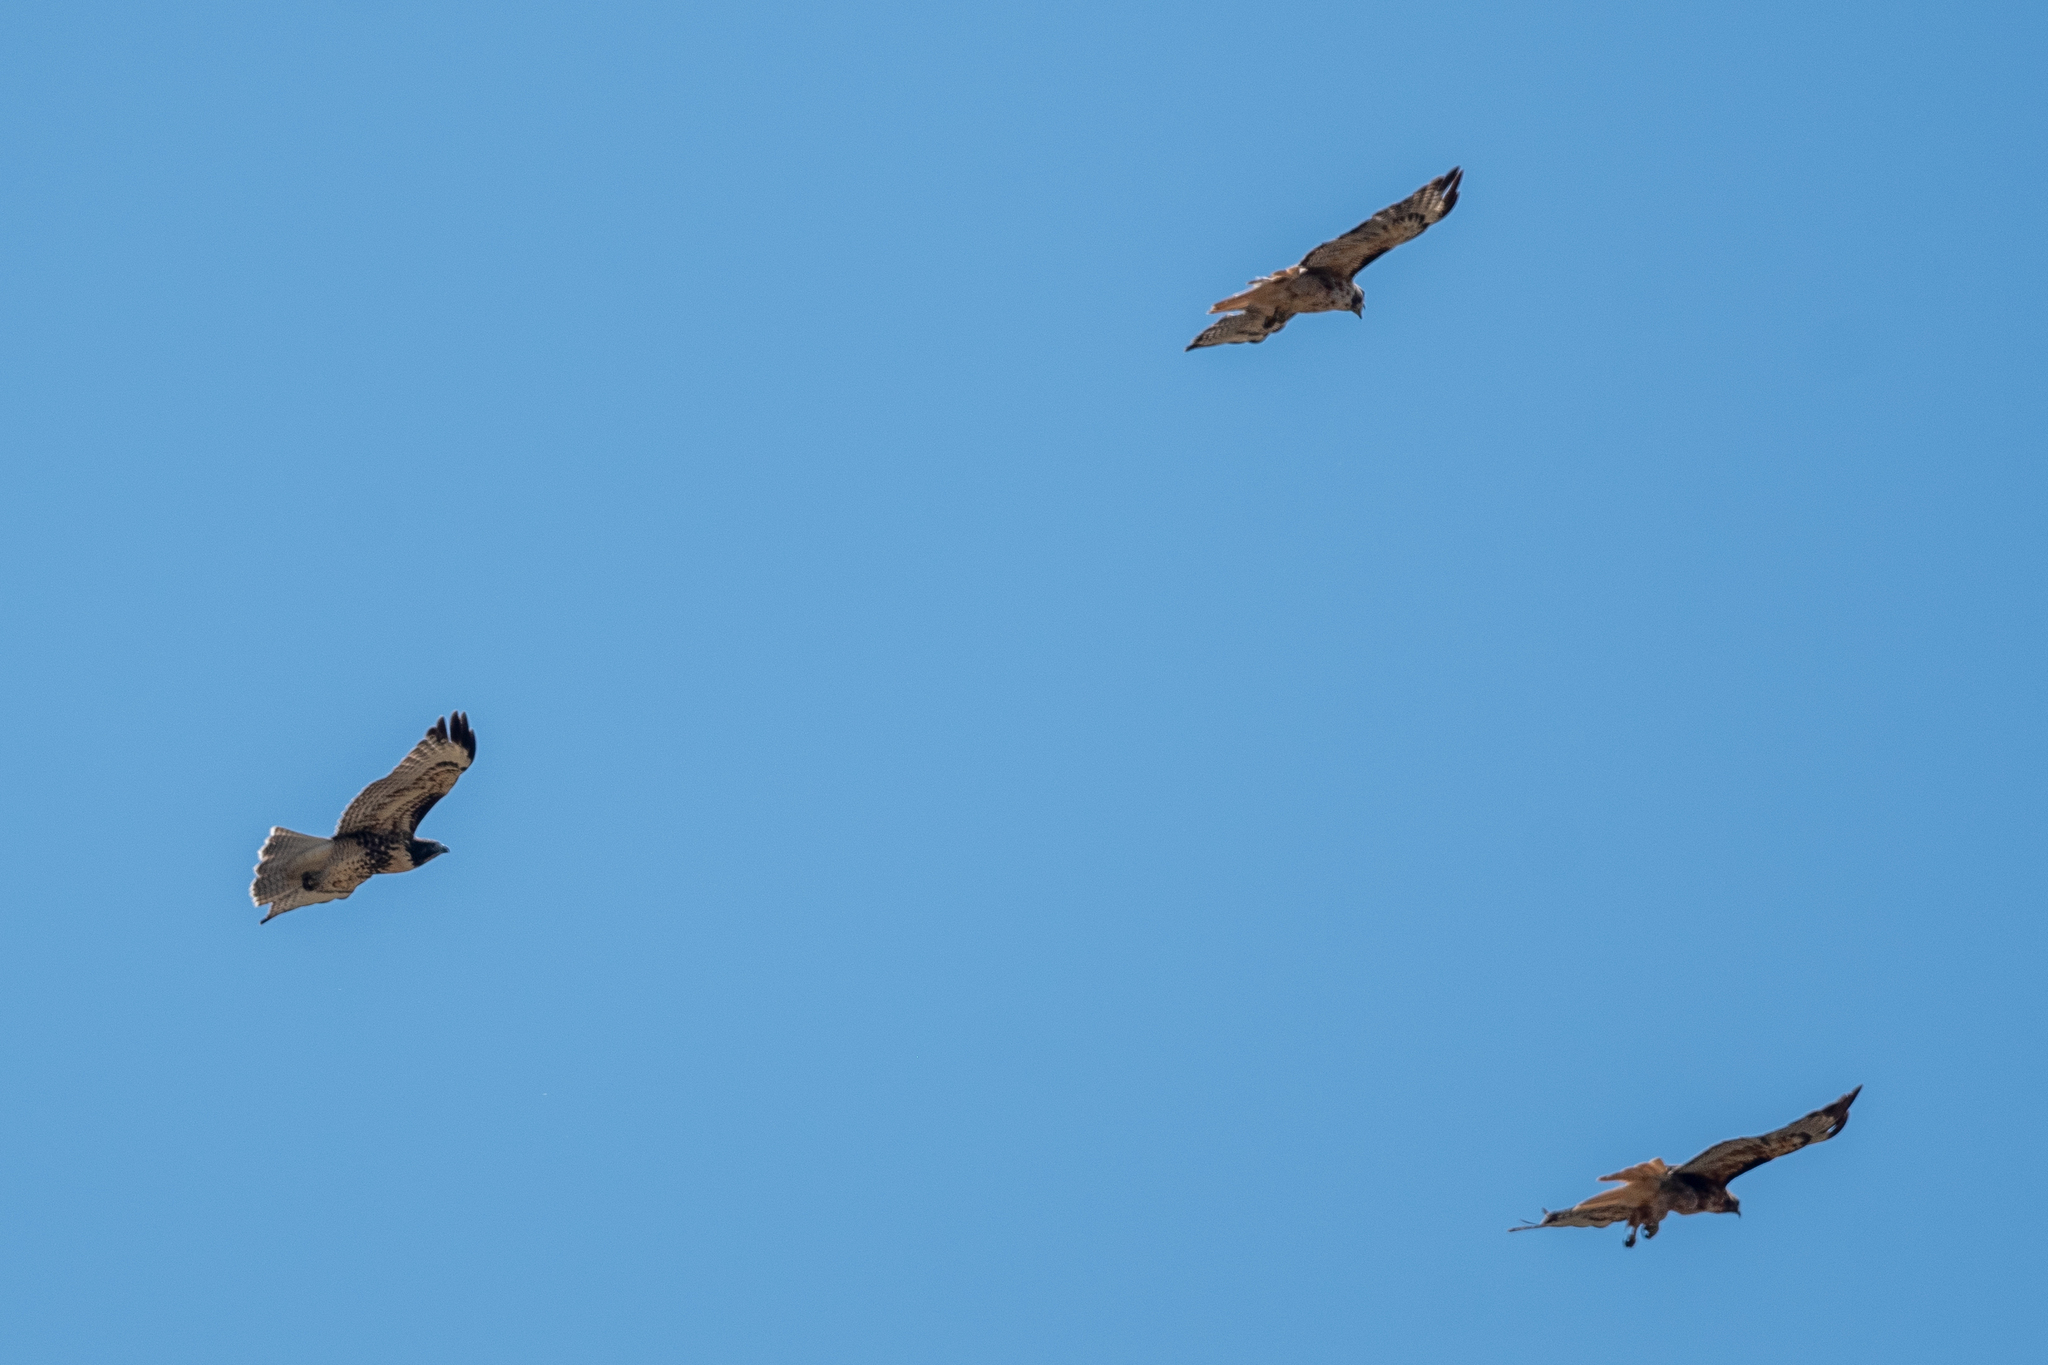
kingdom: Animalia
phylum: Chordata
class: Aves
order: Accipitriformes
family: Accipitridae
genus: Buteo
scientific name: Buteo jamaicensis
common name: Red-tailed hawk
